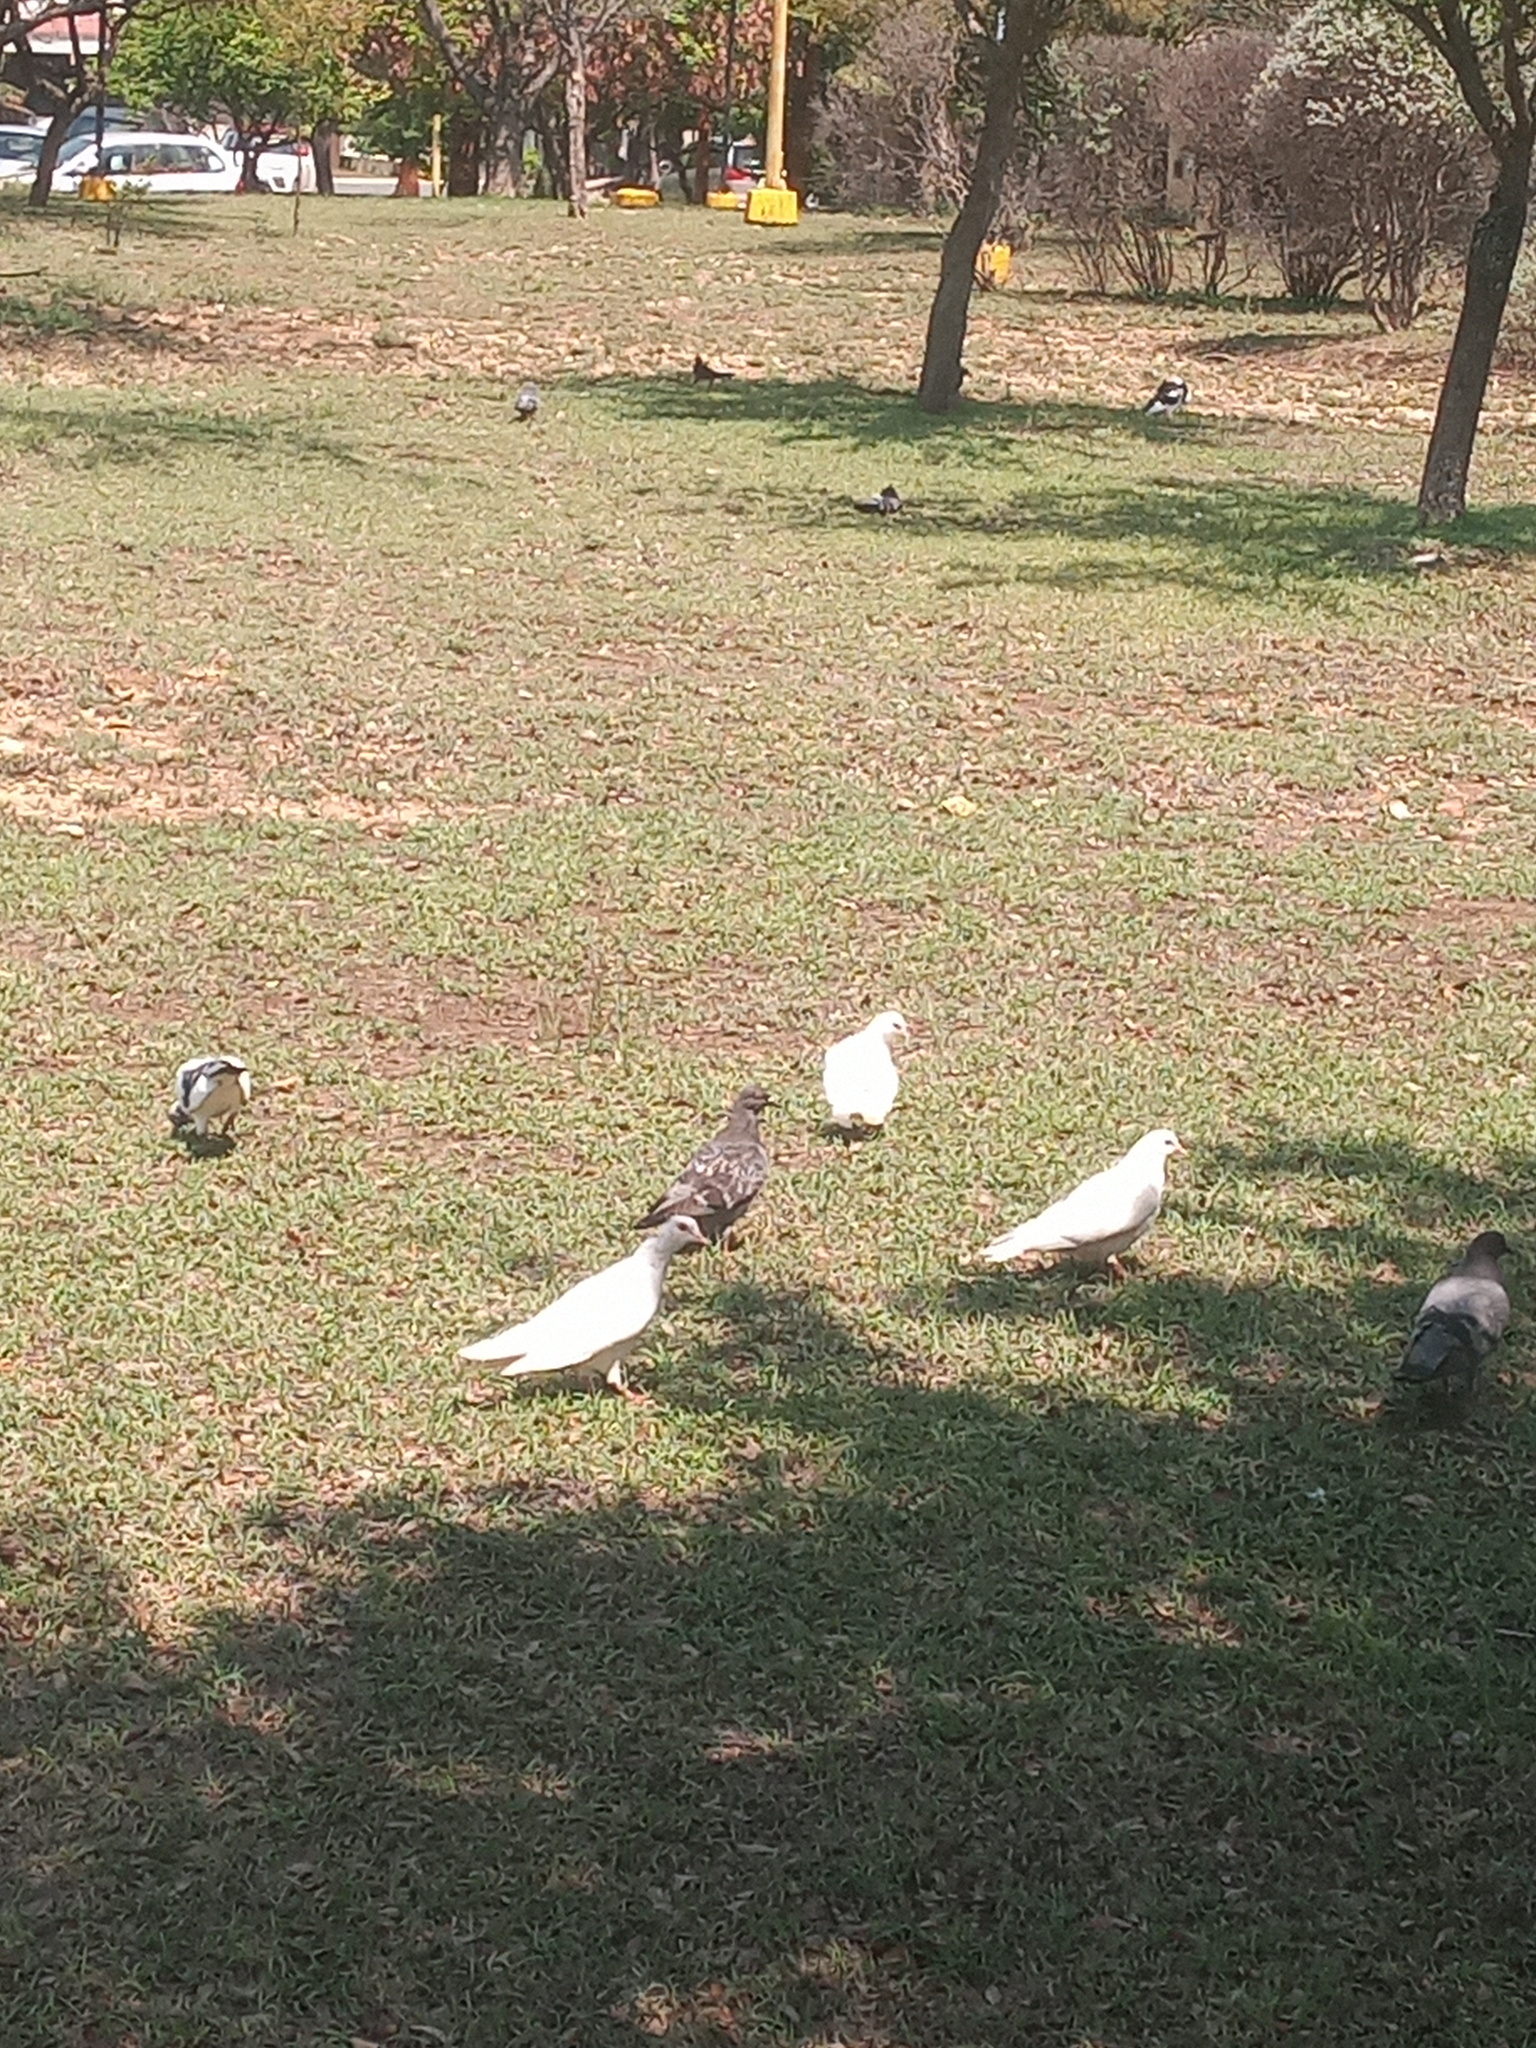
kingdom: Animalia
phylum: Chordata
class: Aves
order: Columbiformes
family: Columbidae
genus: Columba
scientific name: Columba livia
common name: Rock pigeon
